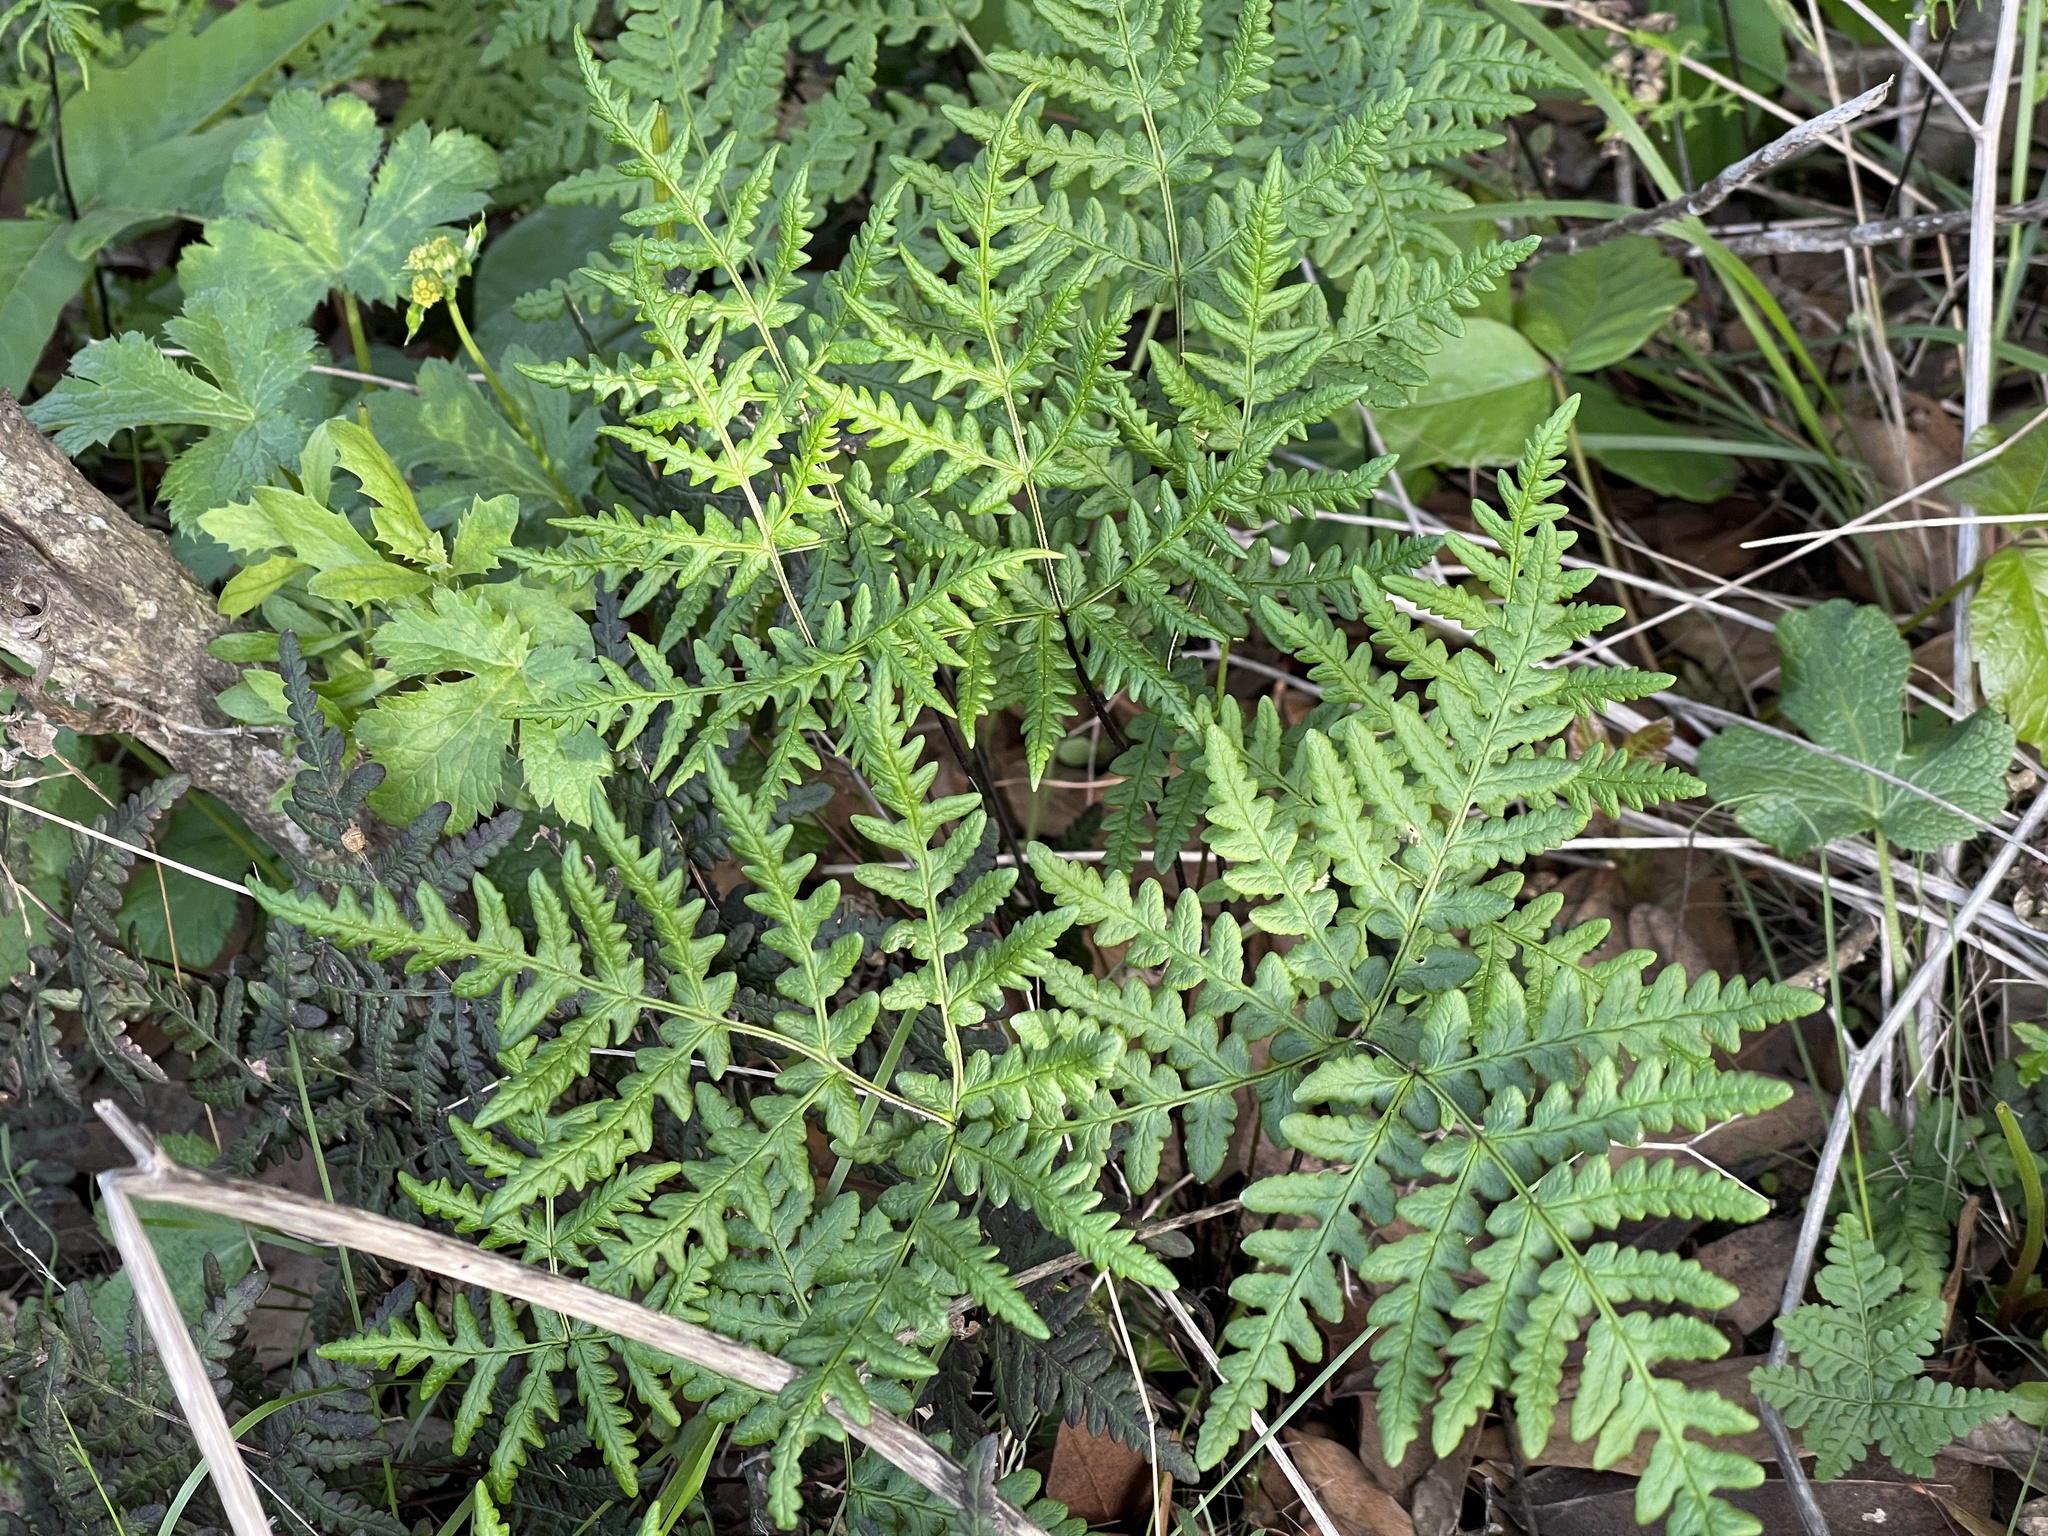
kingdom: Plantae
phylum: Tracheophyta
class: Polypodiopsida
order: Polypodiales
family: Pteridaceae
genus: Pentagramma
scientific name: Pentagramma triangularis
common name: Gold fern
